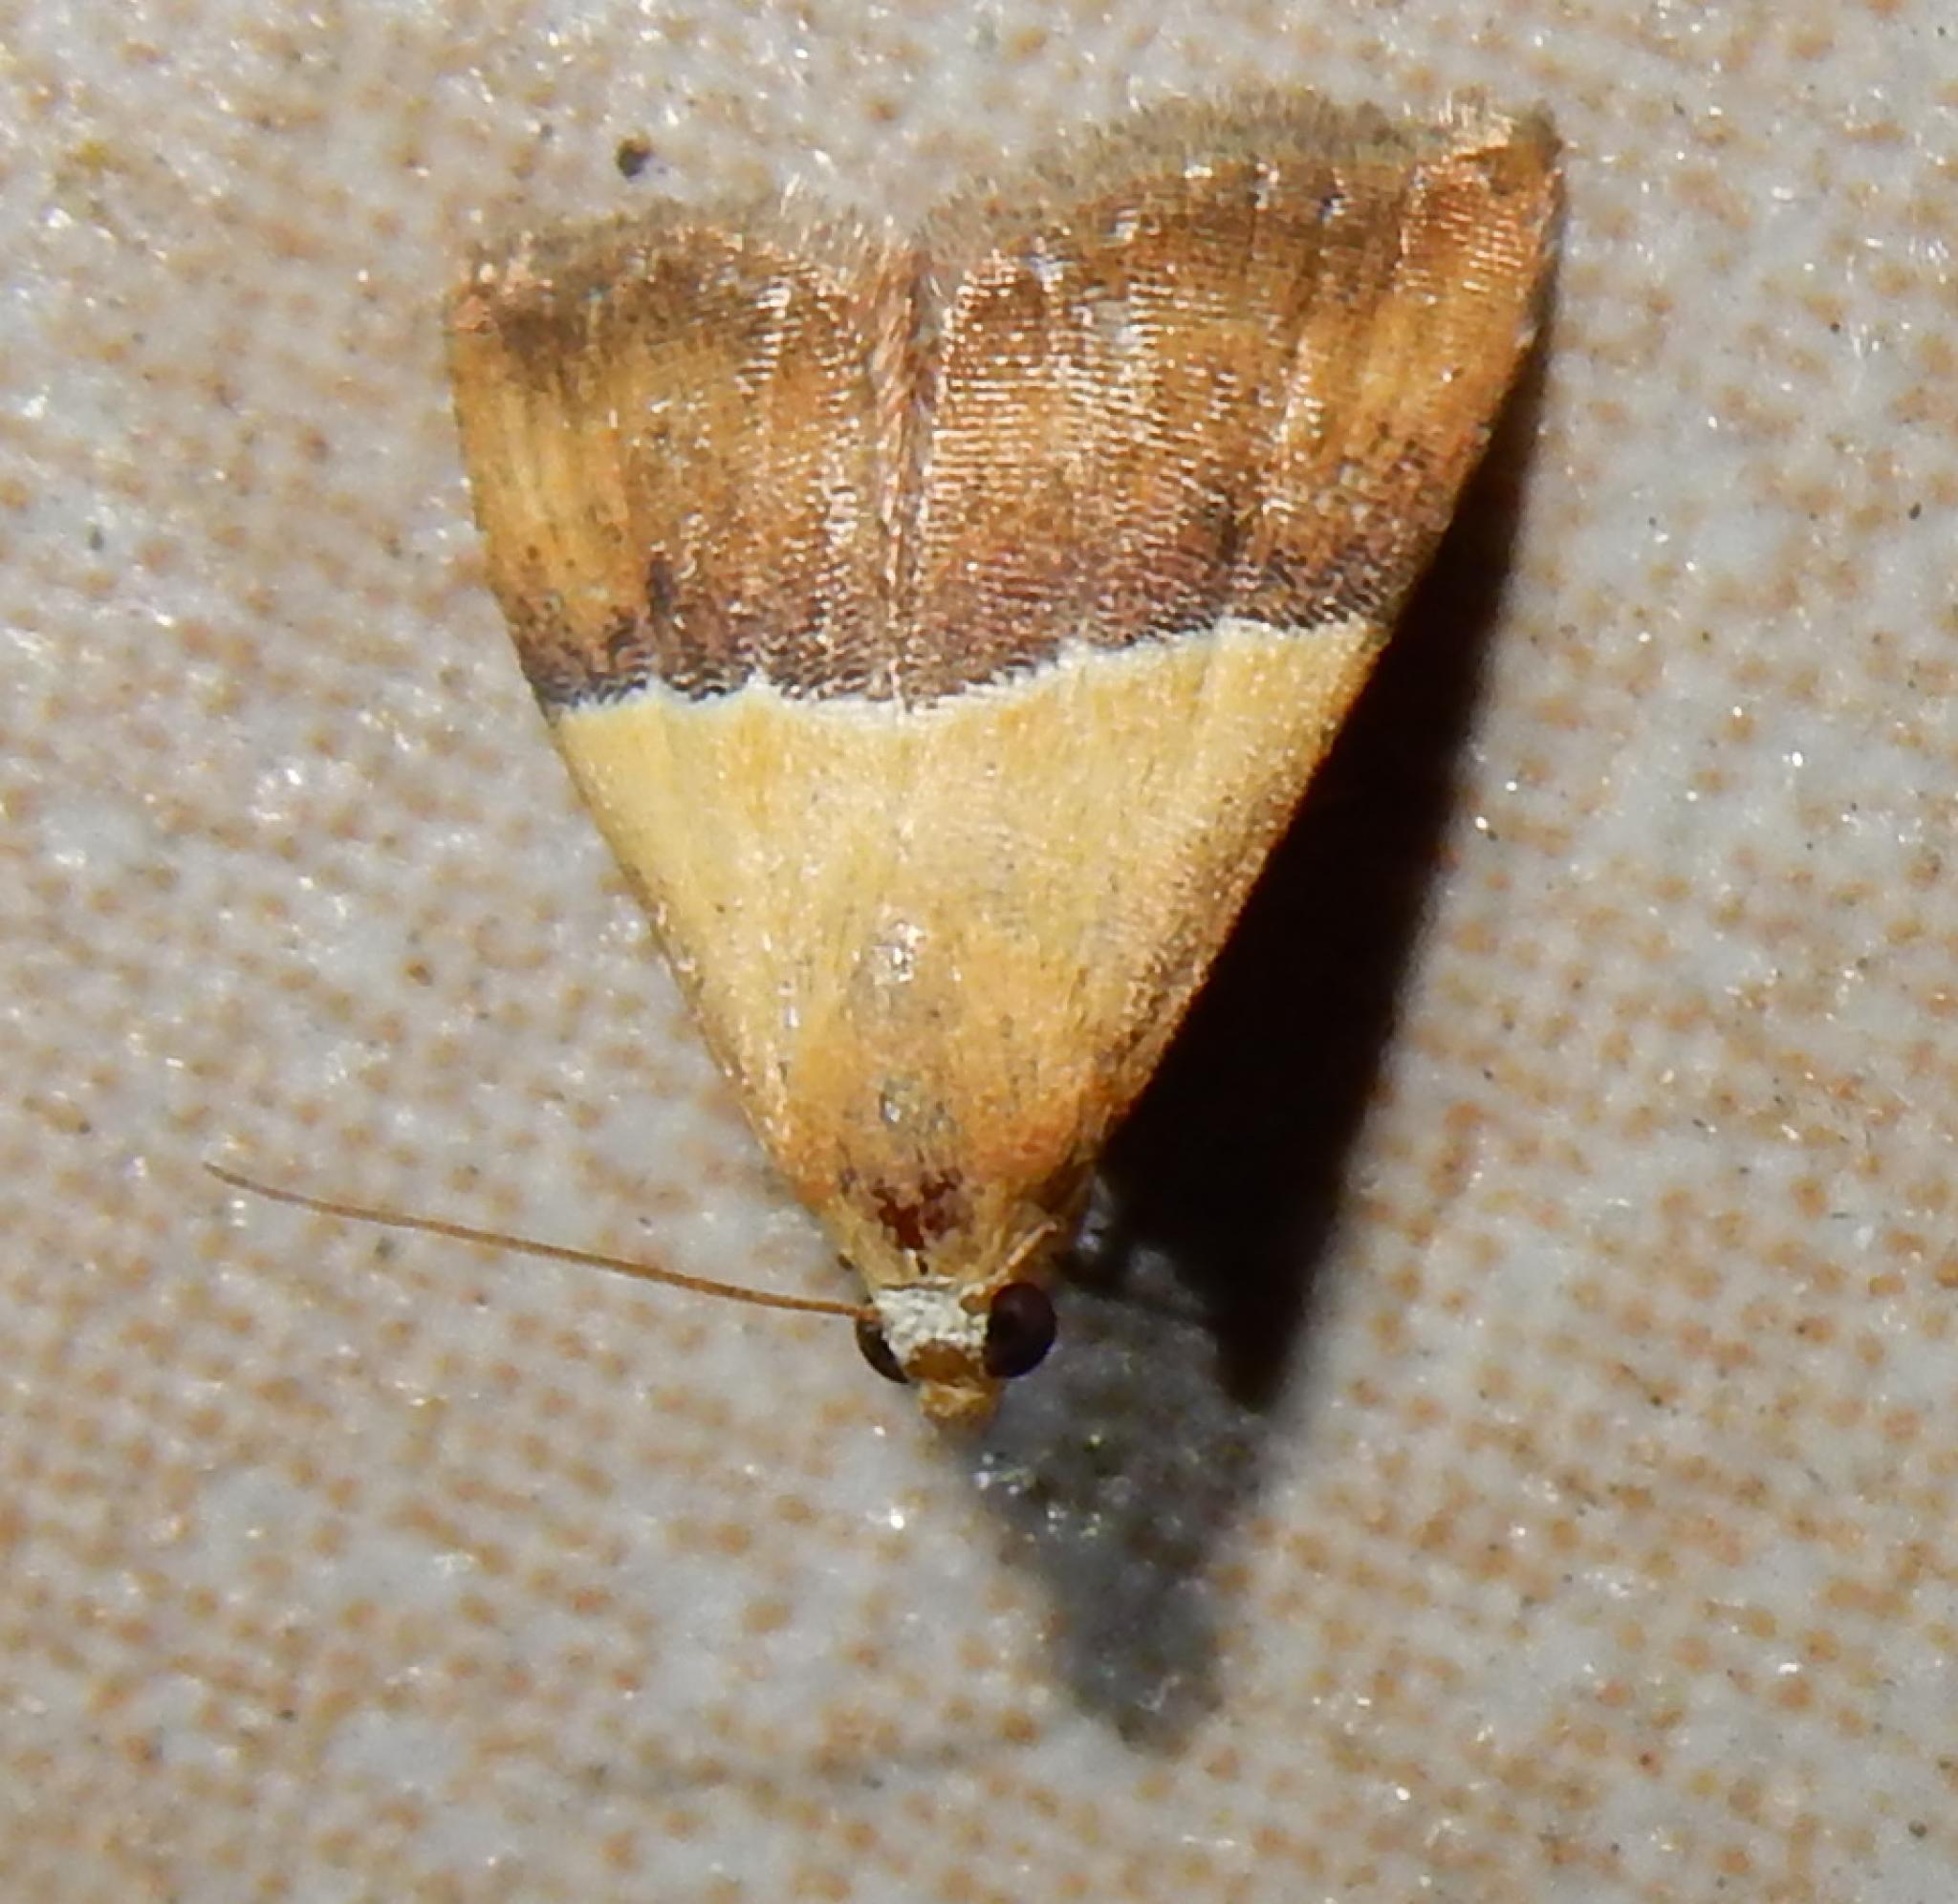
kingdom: Animalia
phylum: Arthropoda
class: Insecta
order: Lepidoptera
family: Noctuidae
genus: Eublemma
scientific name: Eublemma caffrorum
